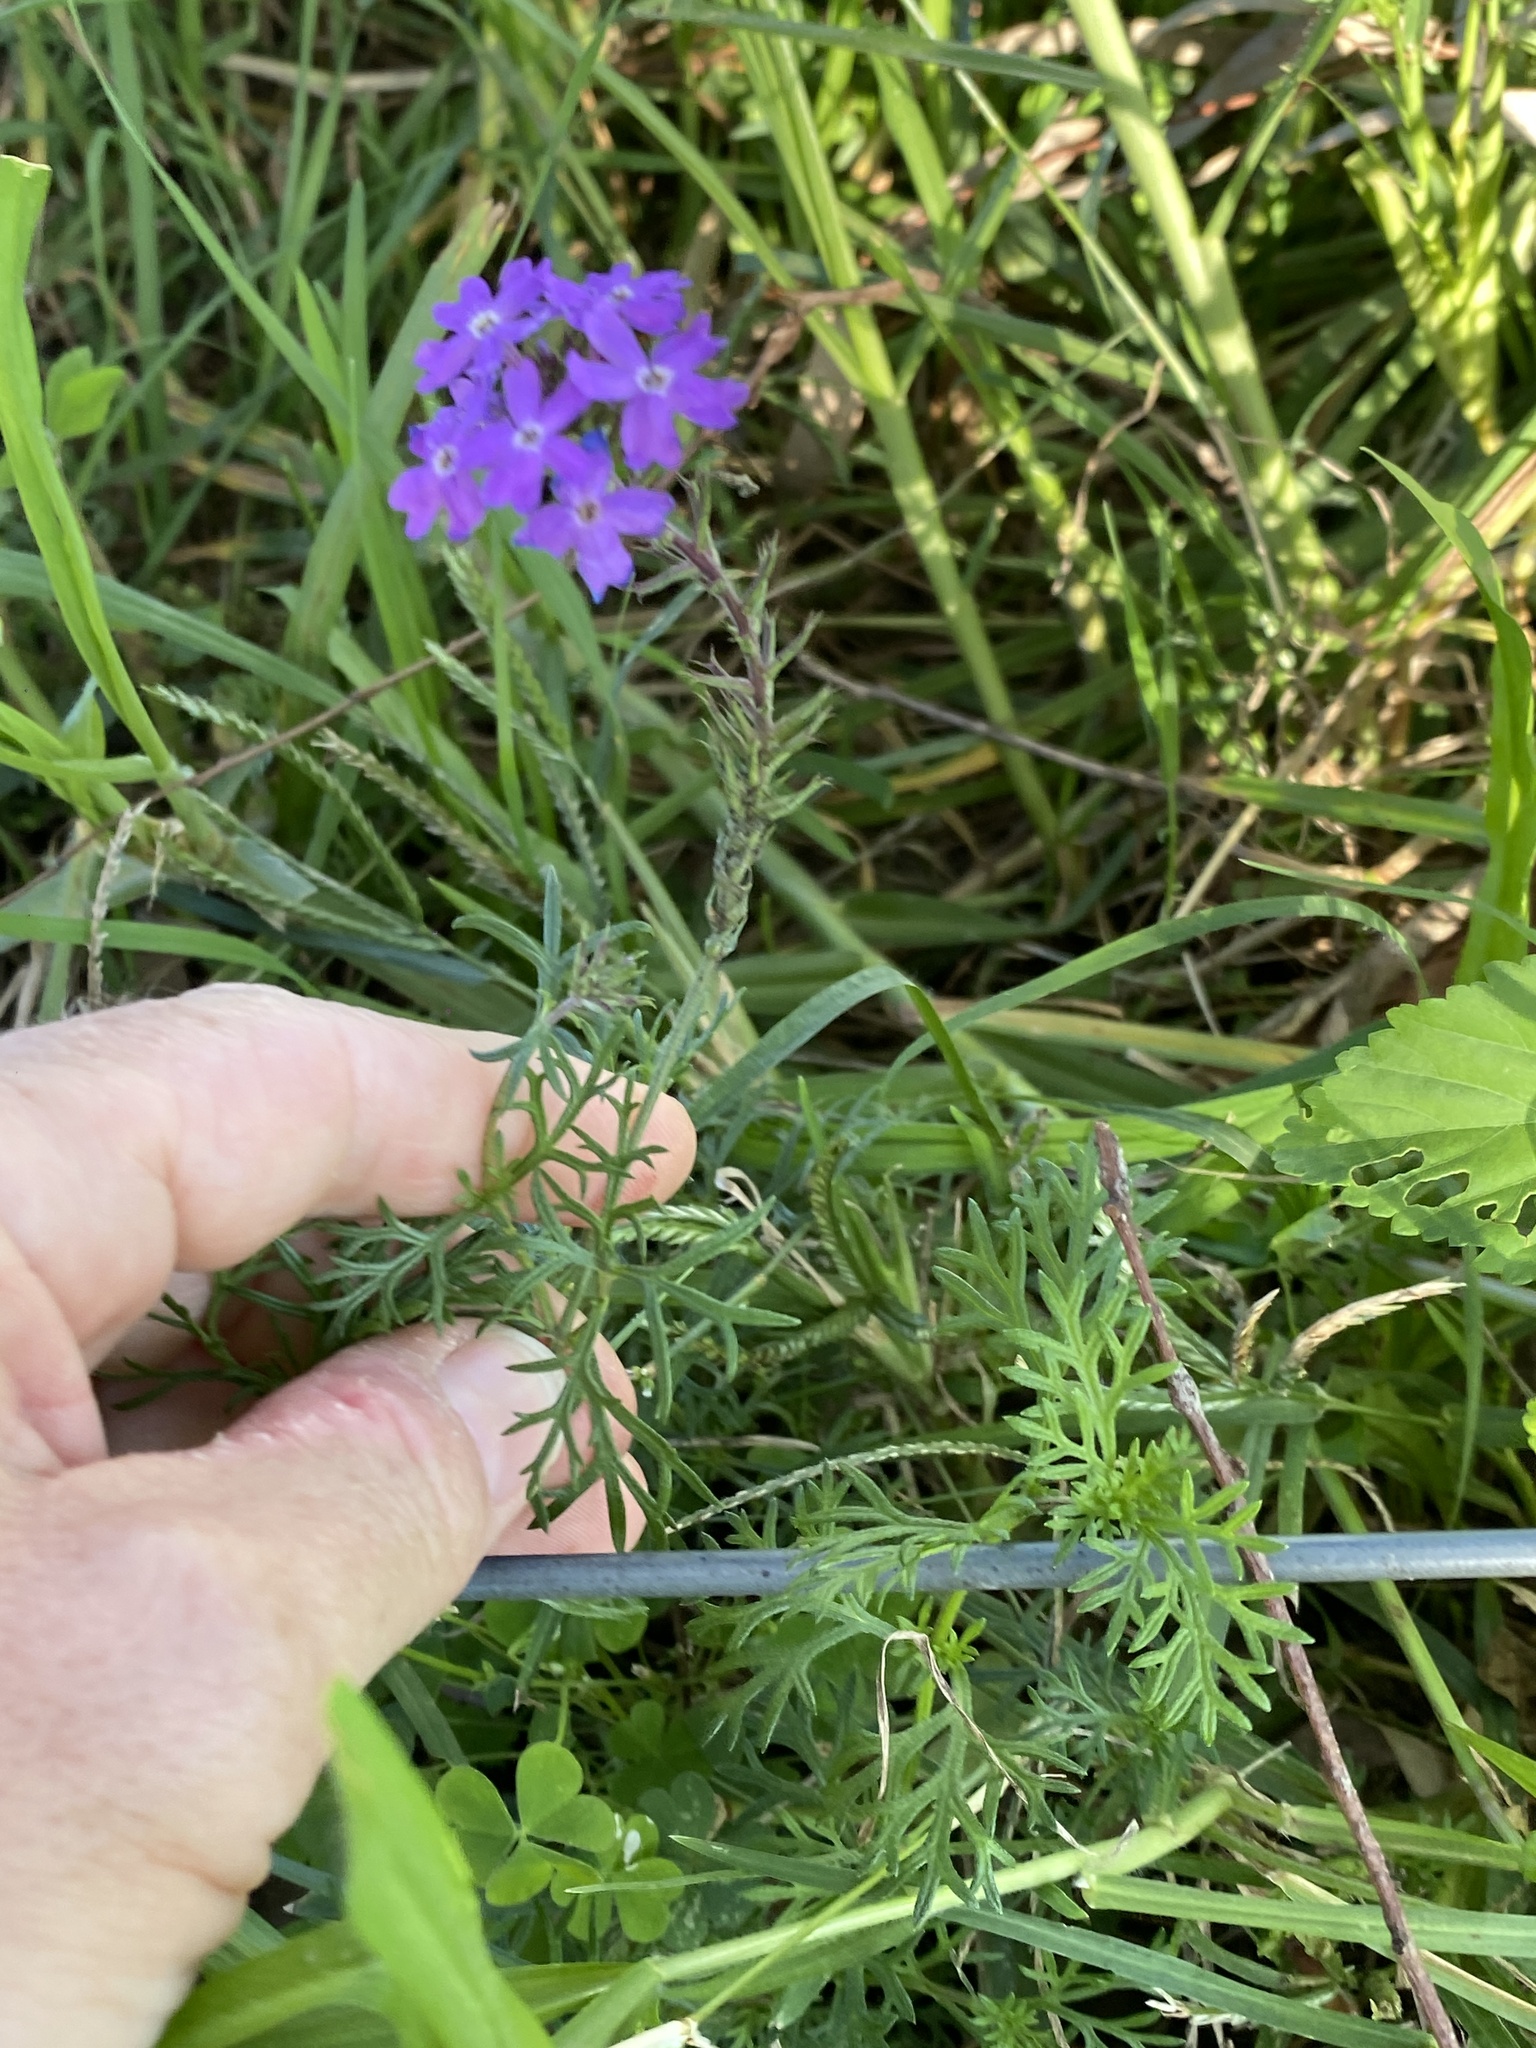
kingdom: Plantae
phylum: Tracheophyta
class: Magnoliopsida
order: Lamiales
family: Verbenaceae
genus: Verbena
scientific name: Verbena aristigera
